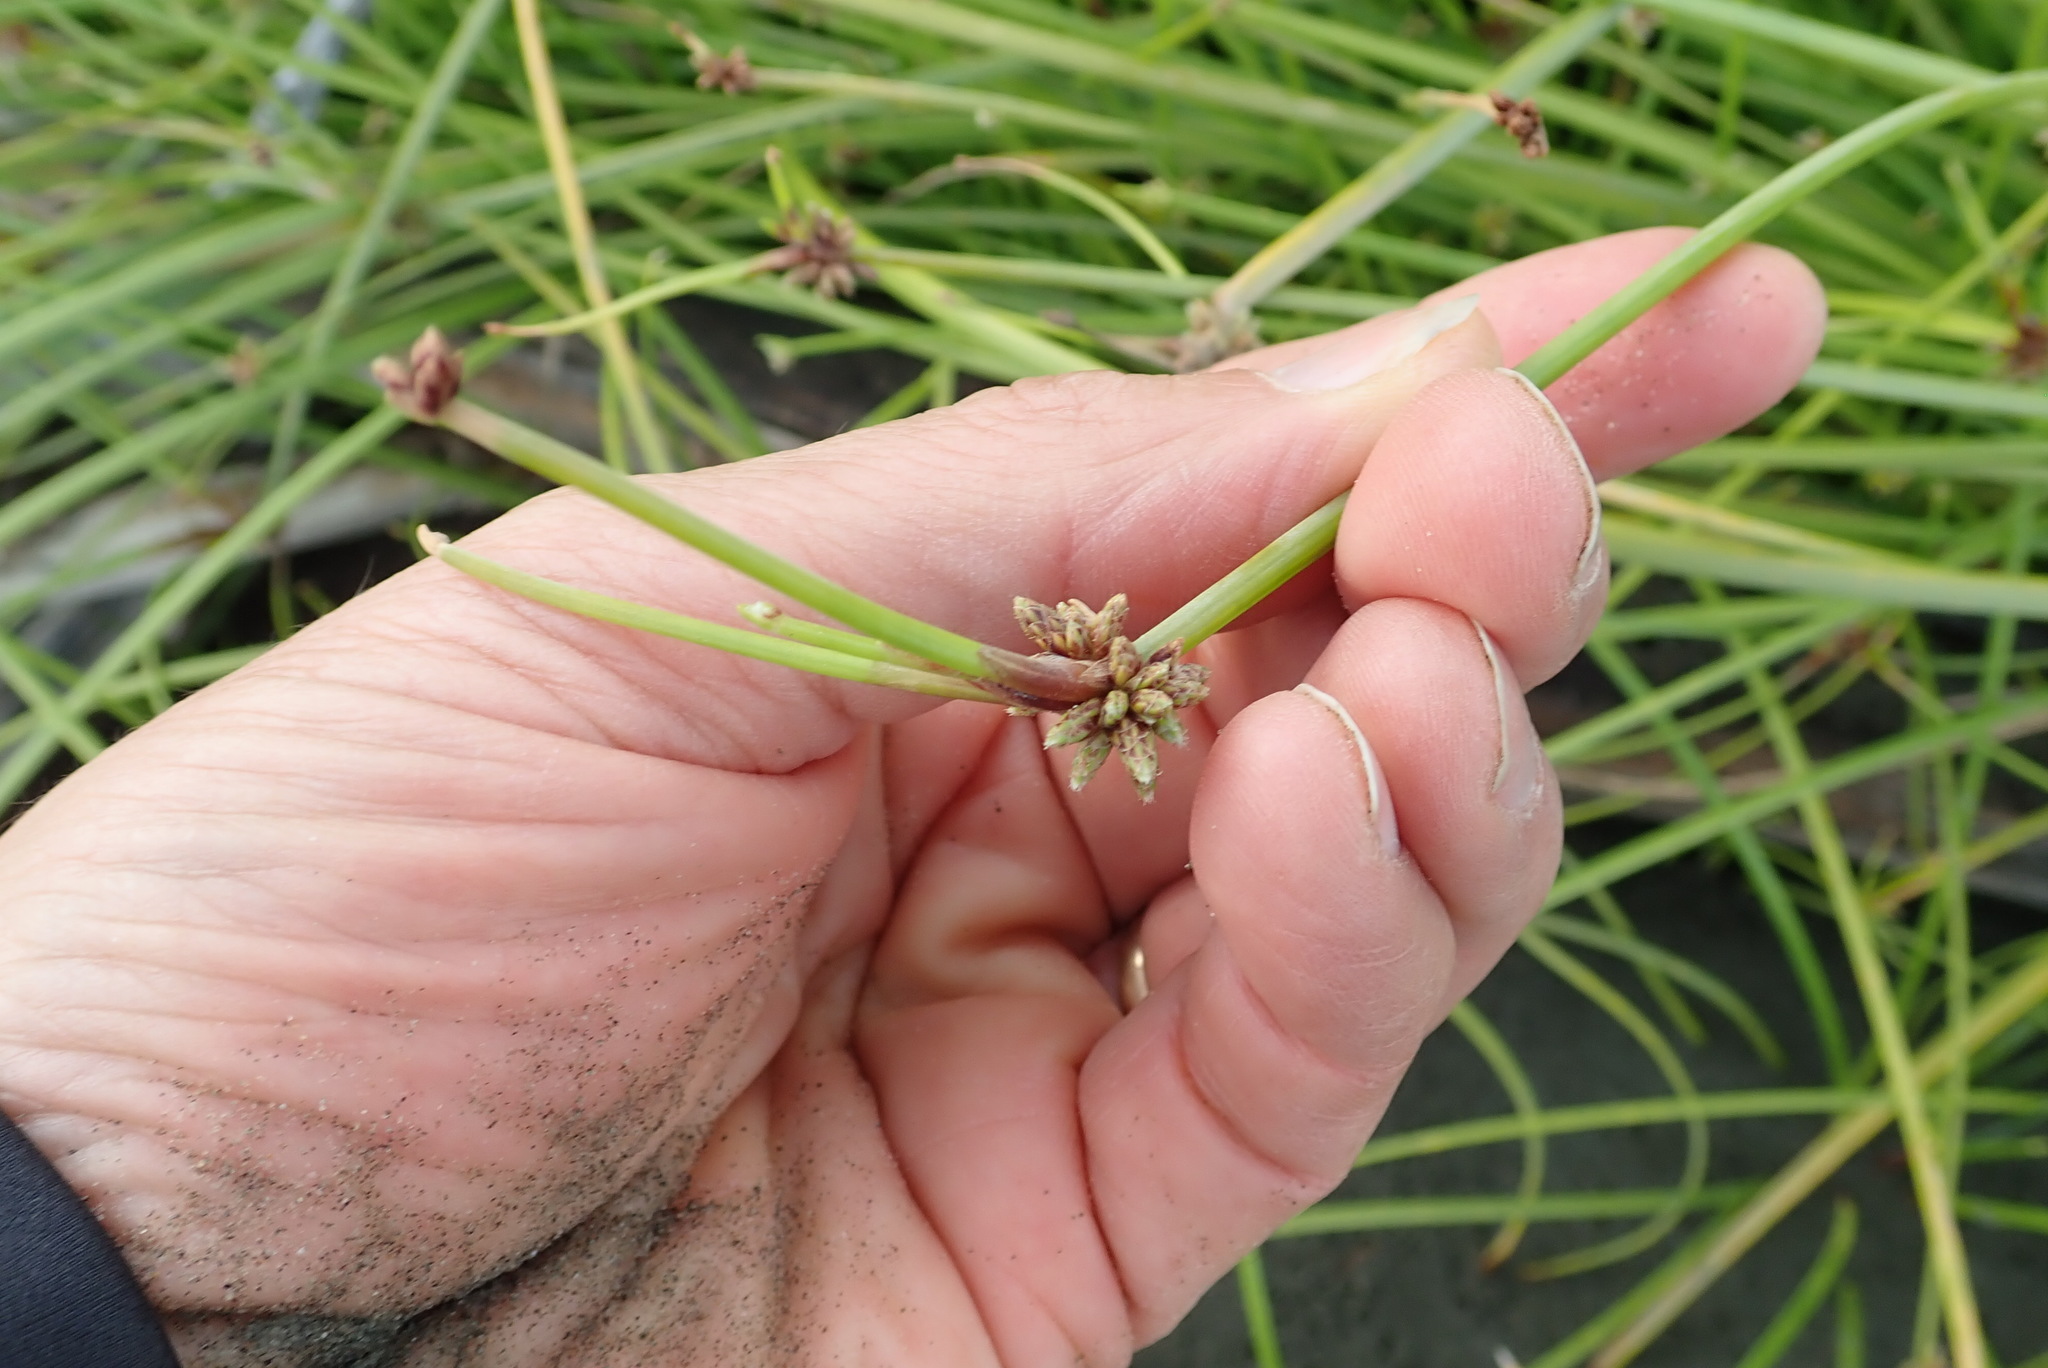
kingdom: Plantae
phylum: Tracheophyta
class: Liliopsida
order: Poales
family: Cyperaceae
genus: Isolepis
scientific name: Isolepis prolifera
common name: Proliferating bulrush
